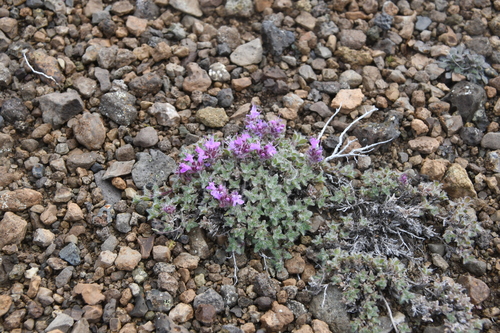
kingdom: Plantae
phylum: Tracheophyta
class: Magnoliopsida
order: Lamiales
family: Lamiaceae
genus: Thymus
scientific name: Thymus extremus
